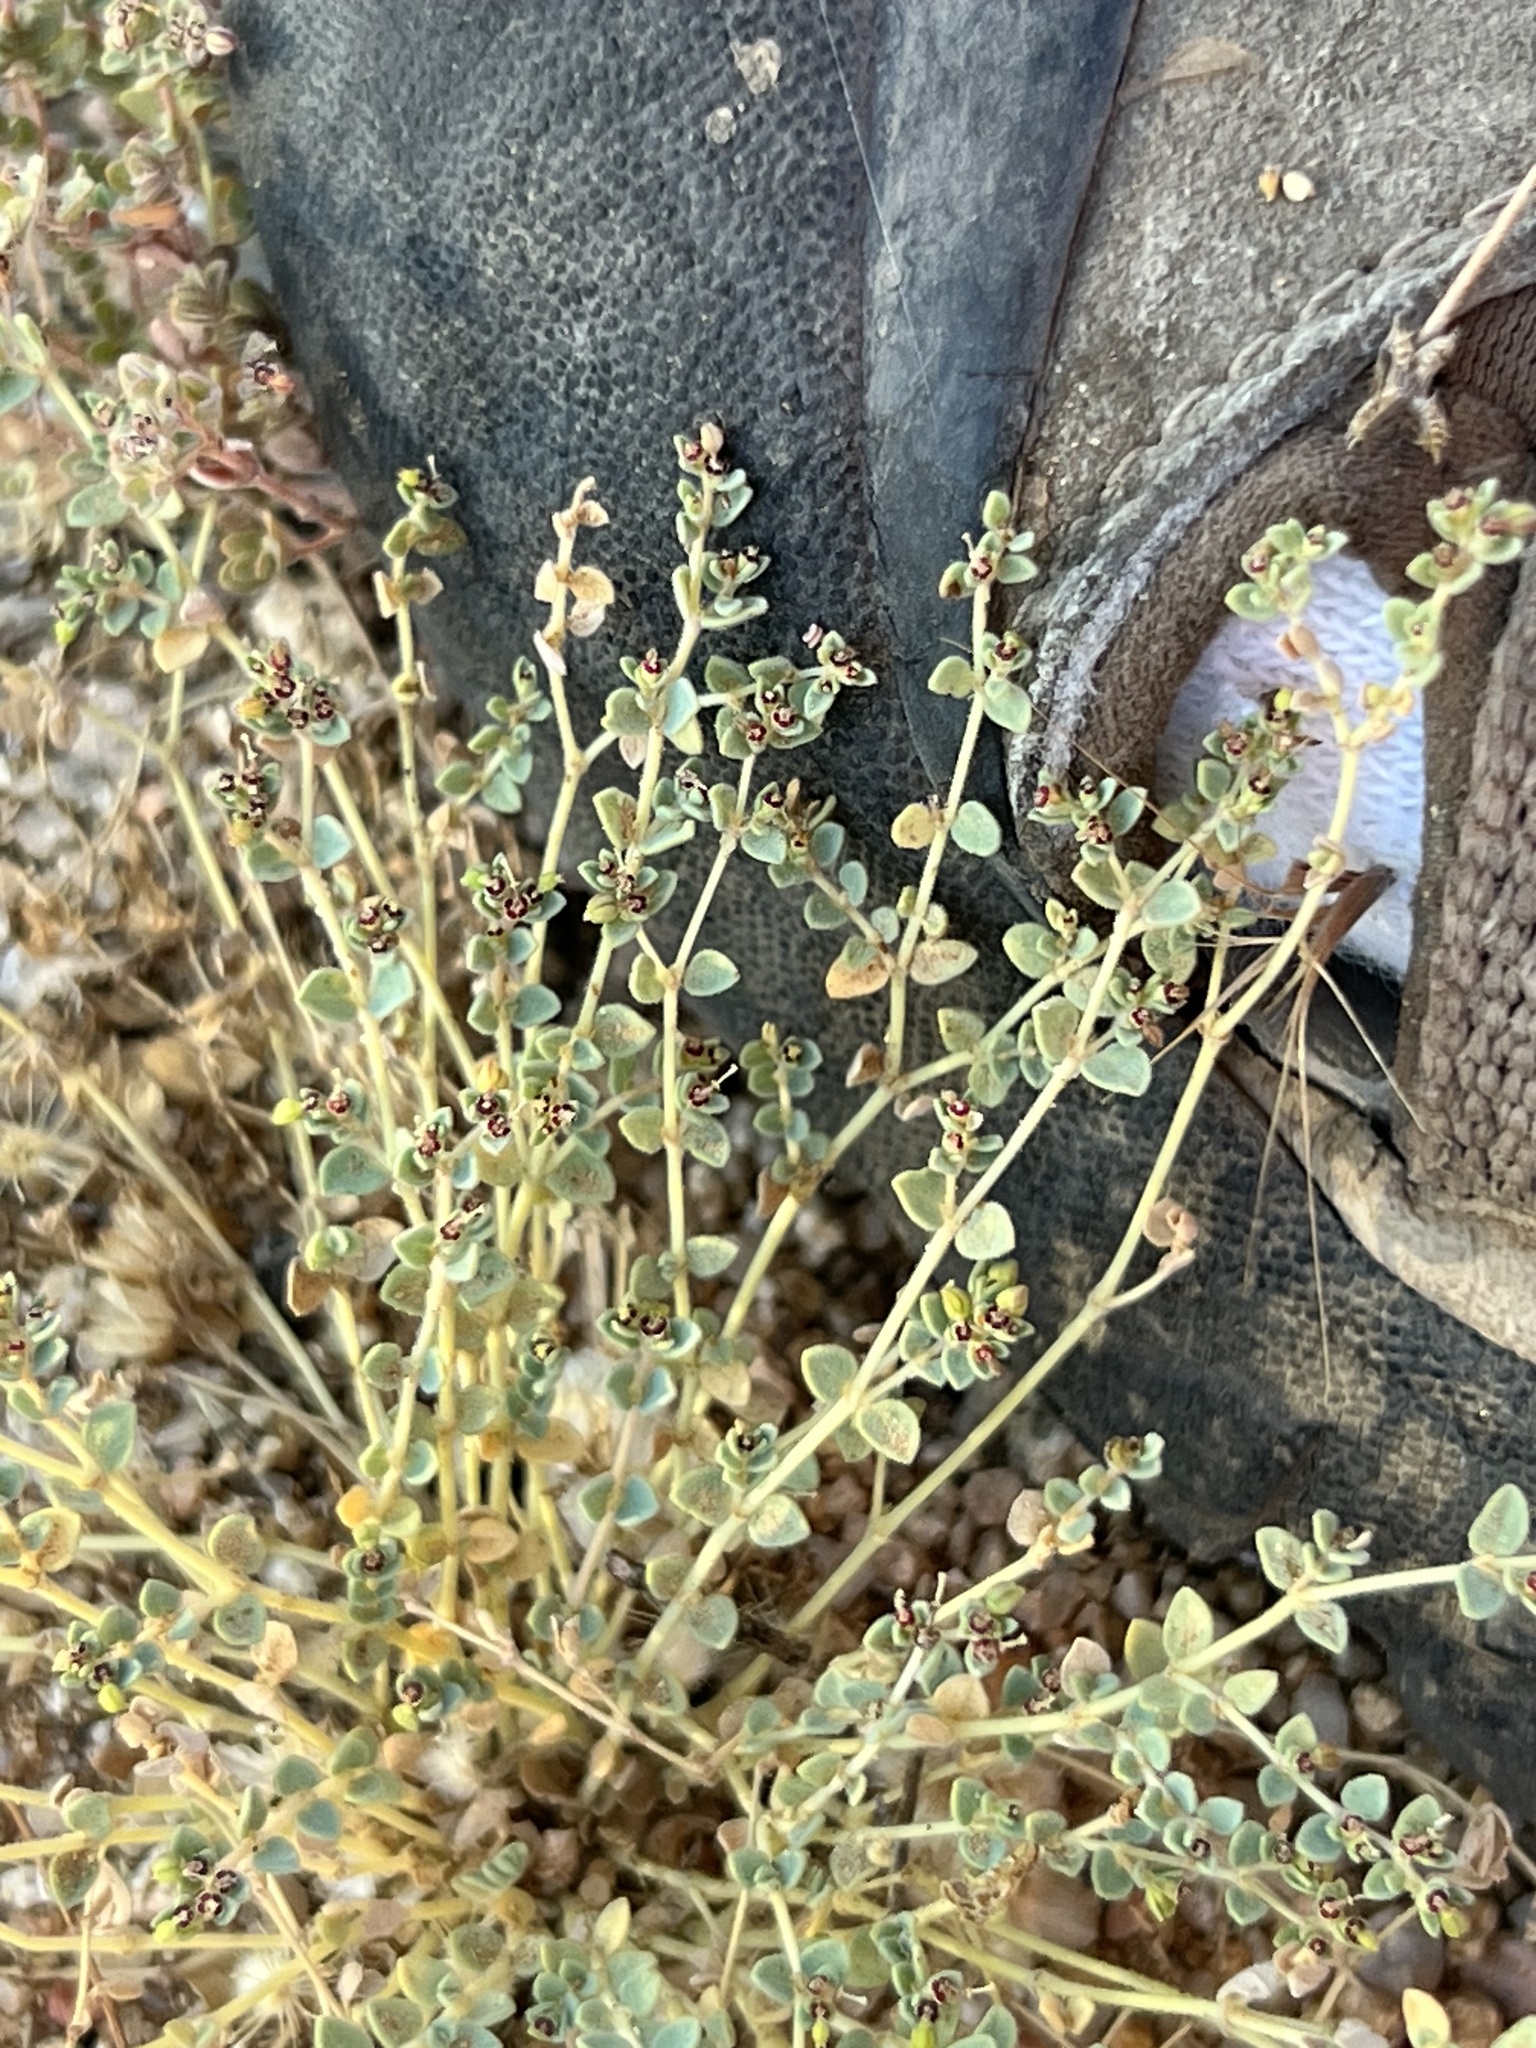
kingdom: Plantae
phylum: Tracheophyta
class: Magnoliopsida
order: Malpighiales
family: Euphorbiaceae
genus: Euphorbia
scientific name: Euphorbia polycarpa
